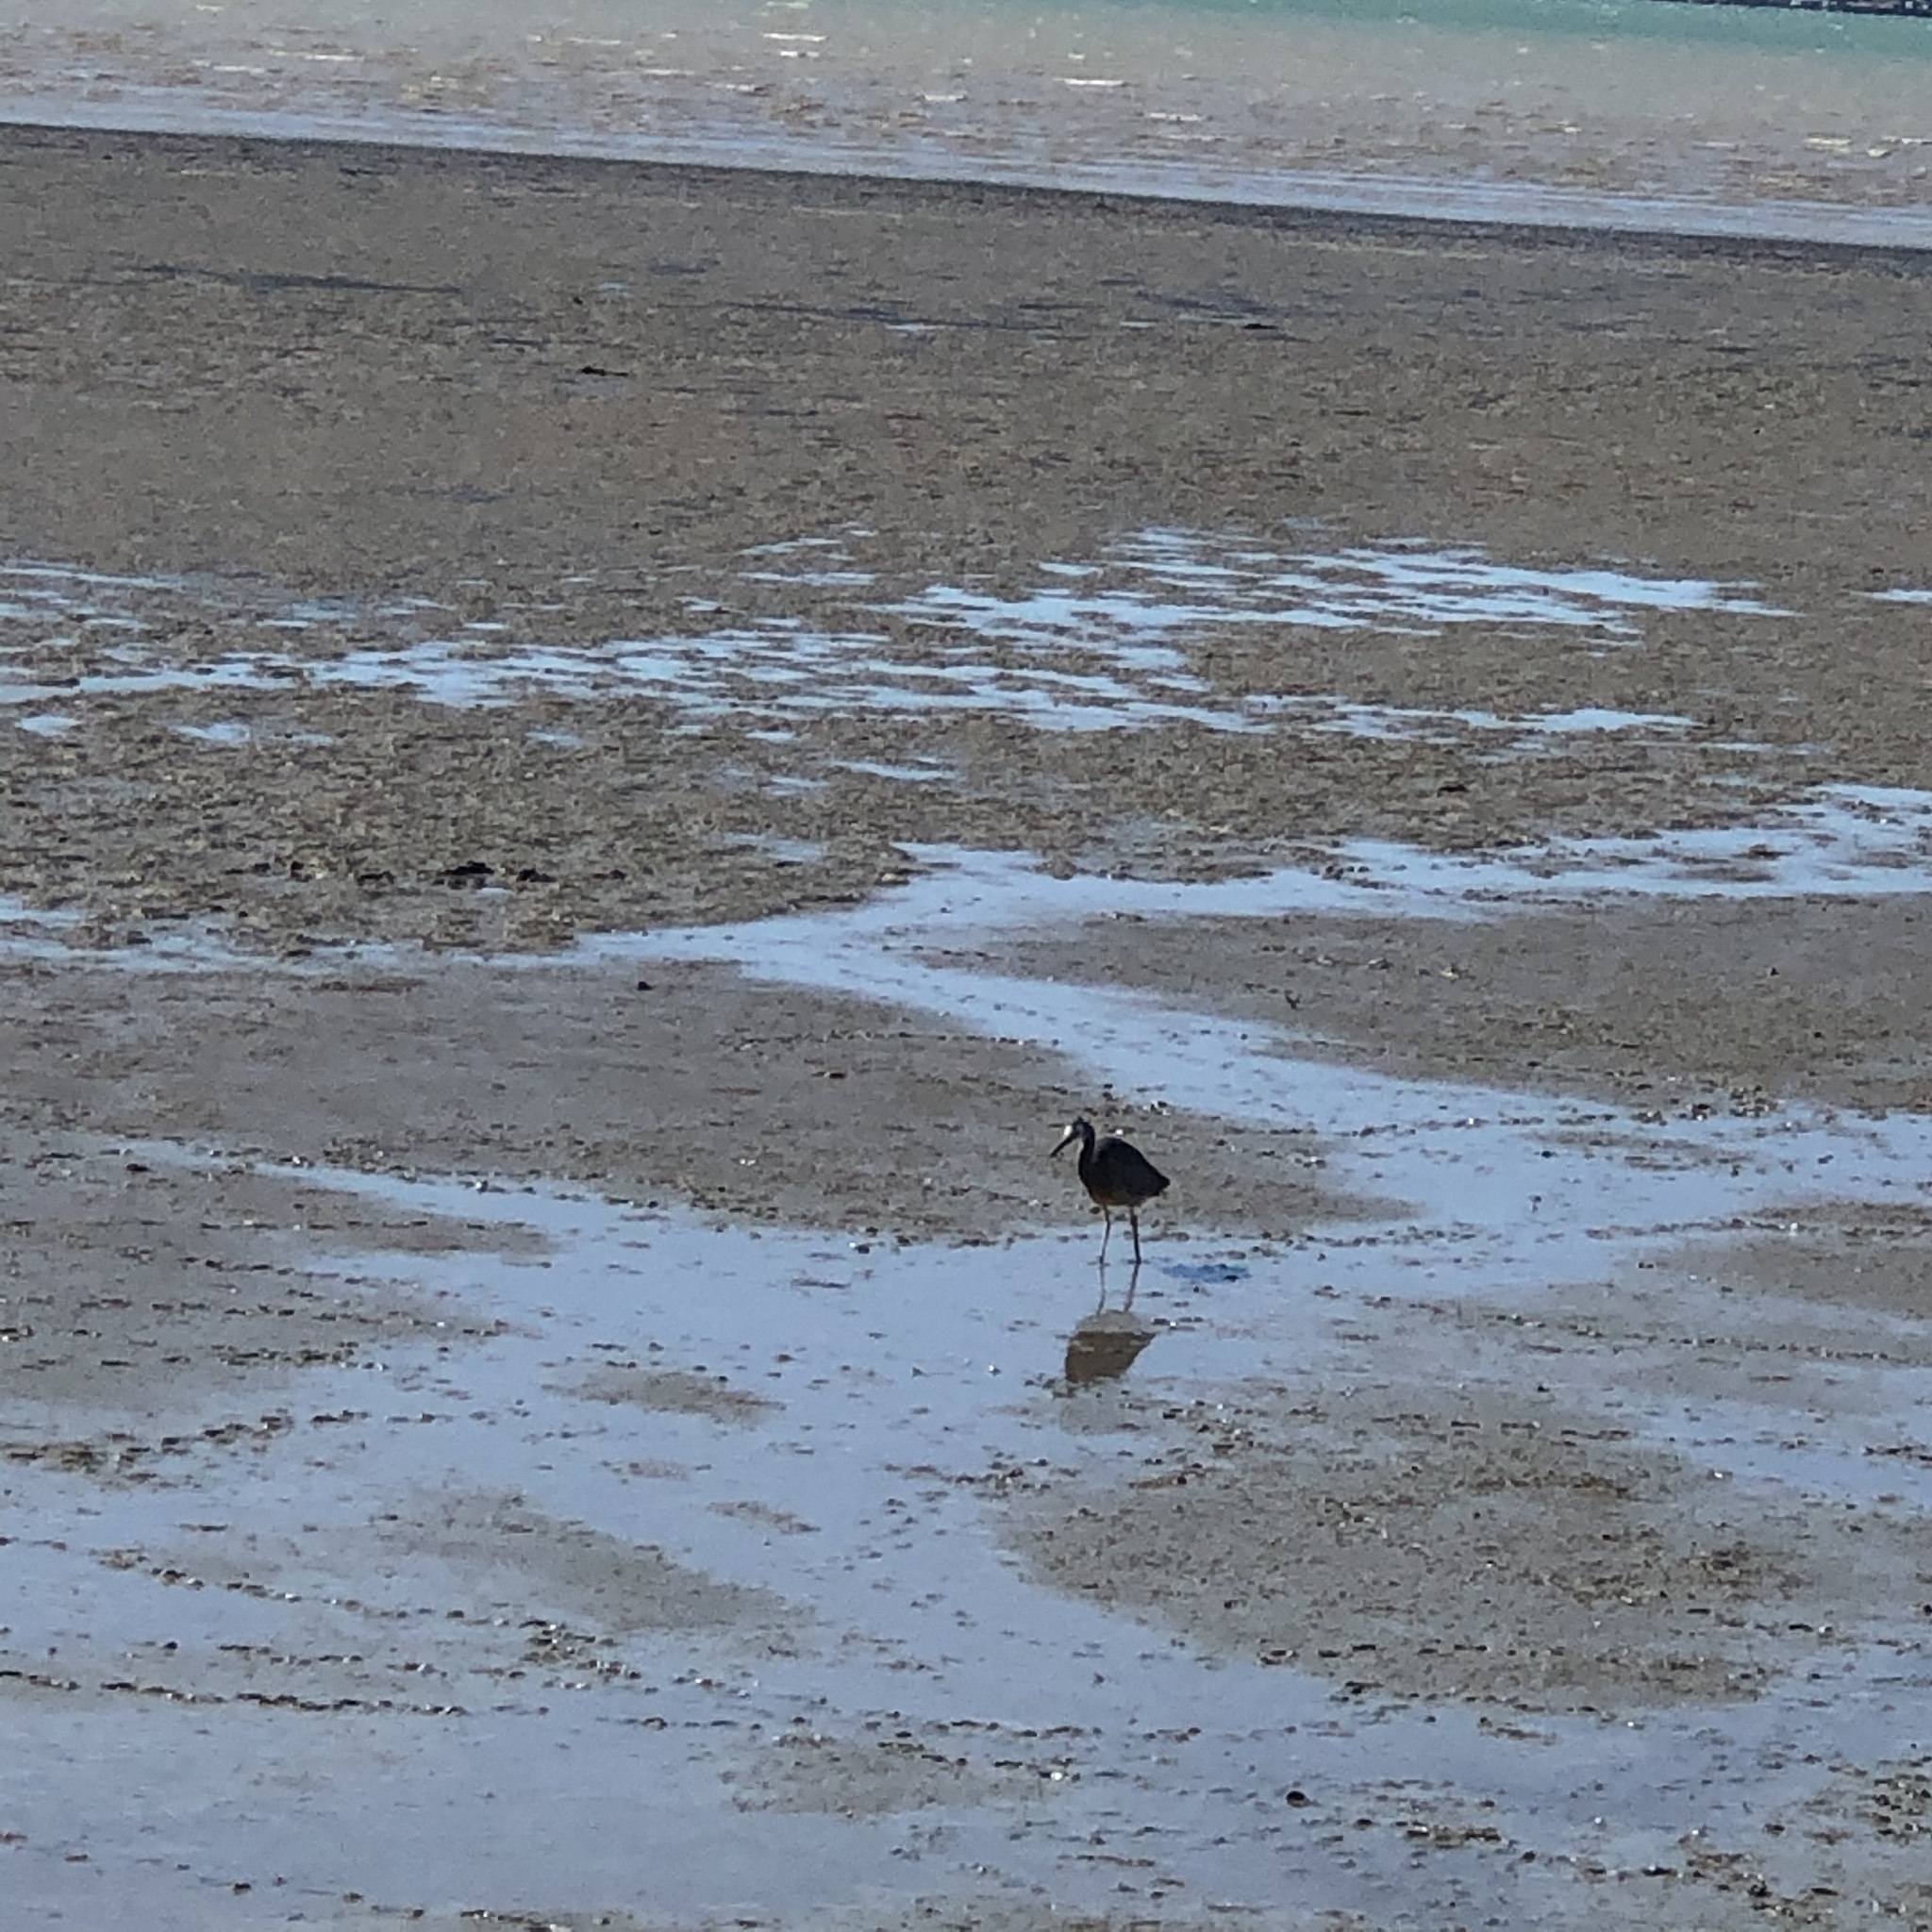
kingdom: Animalia
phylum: Chordata
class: Aves
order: Pelecaniformes
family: Ardeidae
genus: Egretta
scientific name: Egretta novaehollandiae
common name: White-faced heron
